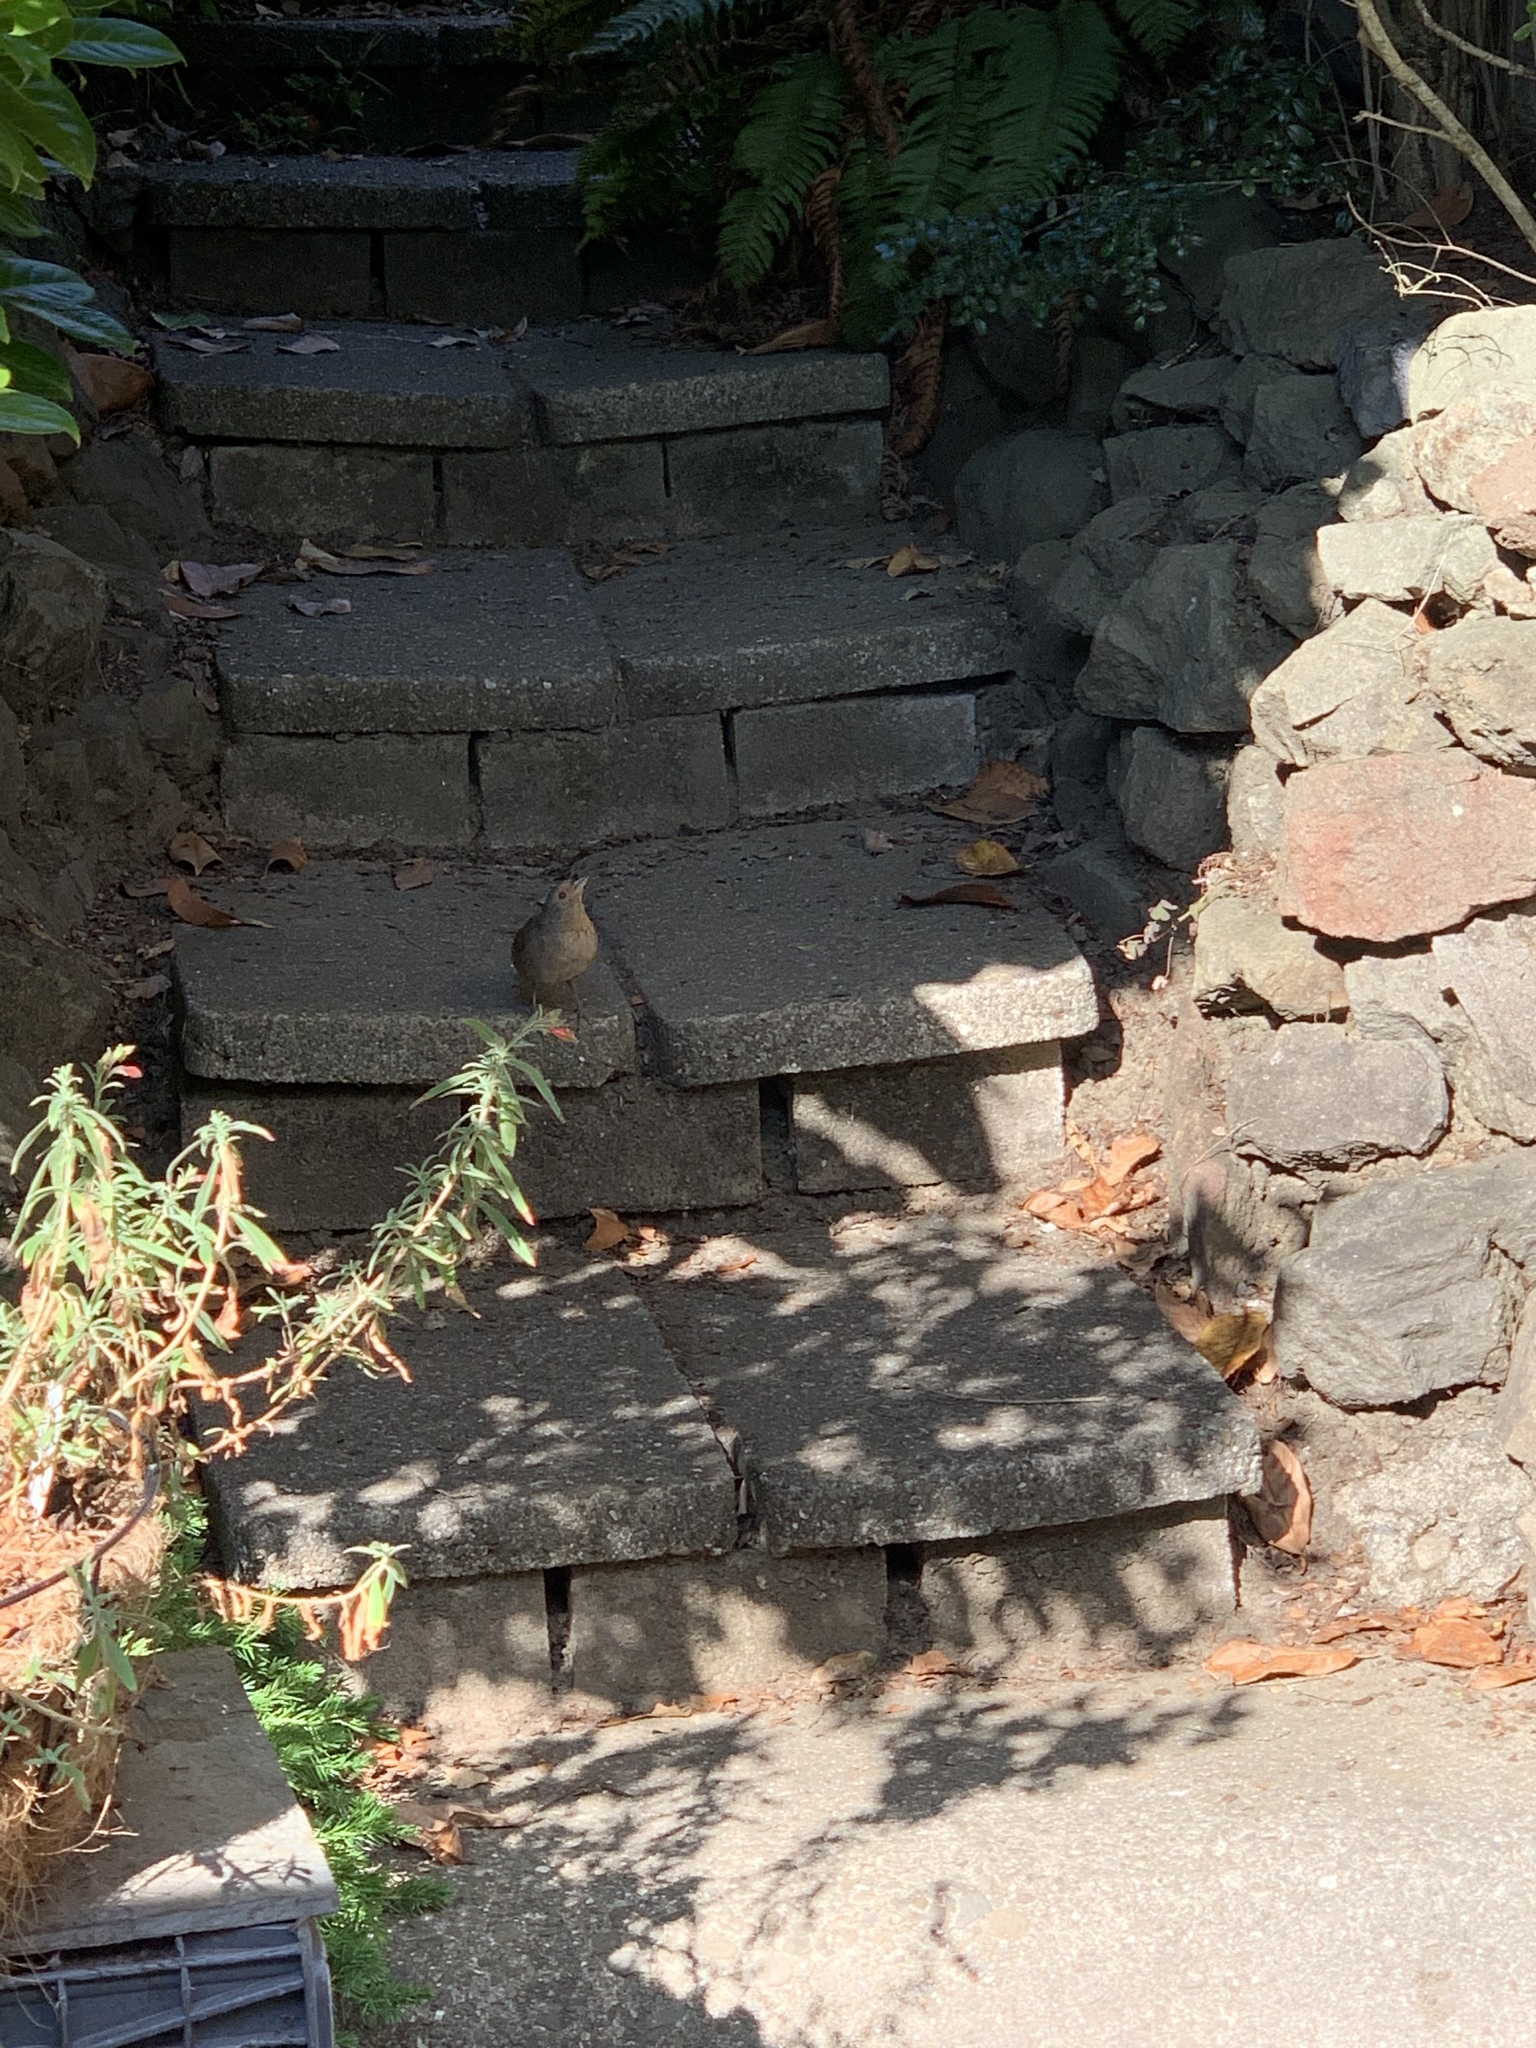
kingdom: Animalia
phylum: Chordata
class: Aves
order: Passeriformes
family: Passerellidae
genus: Melozone
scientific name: Melozone crissalis
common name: California towhee
